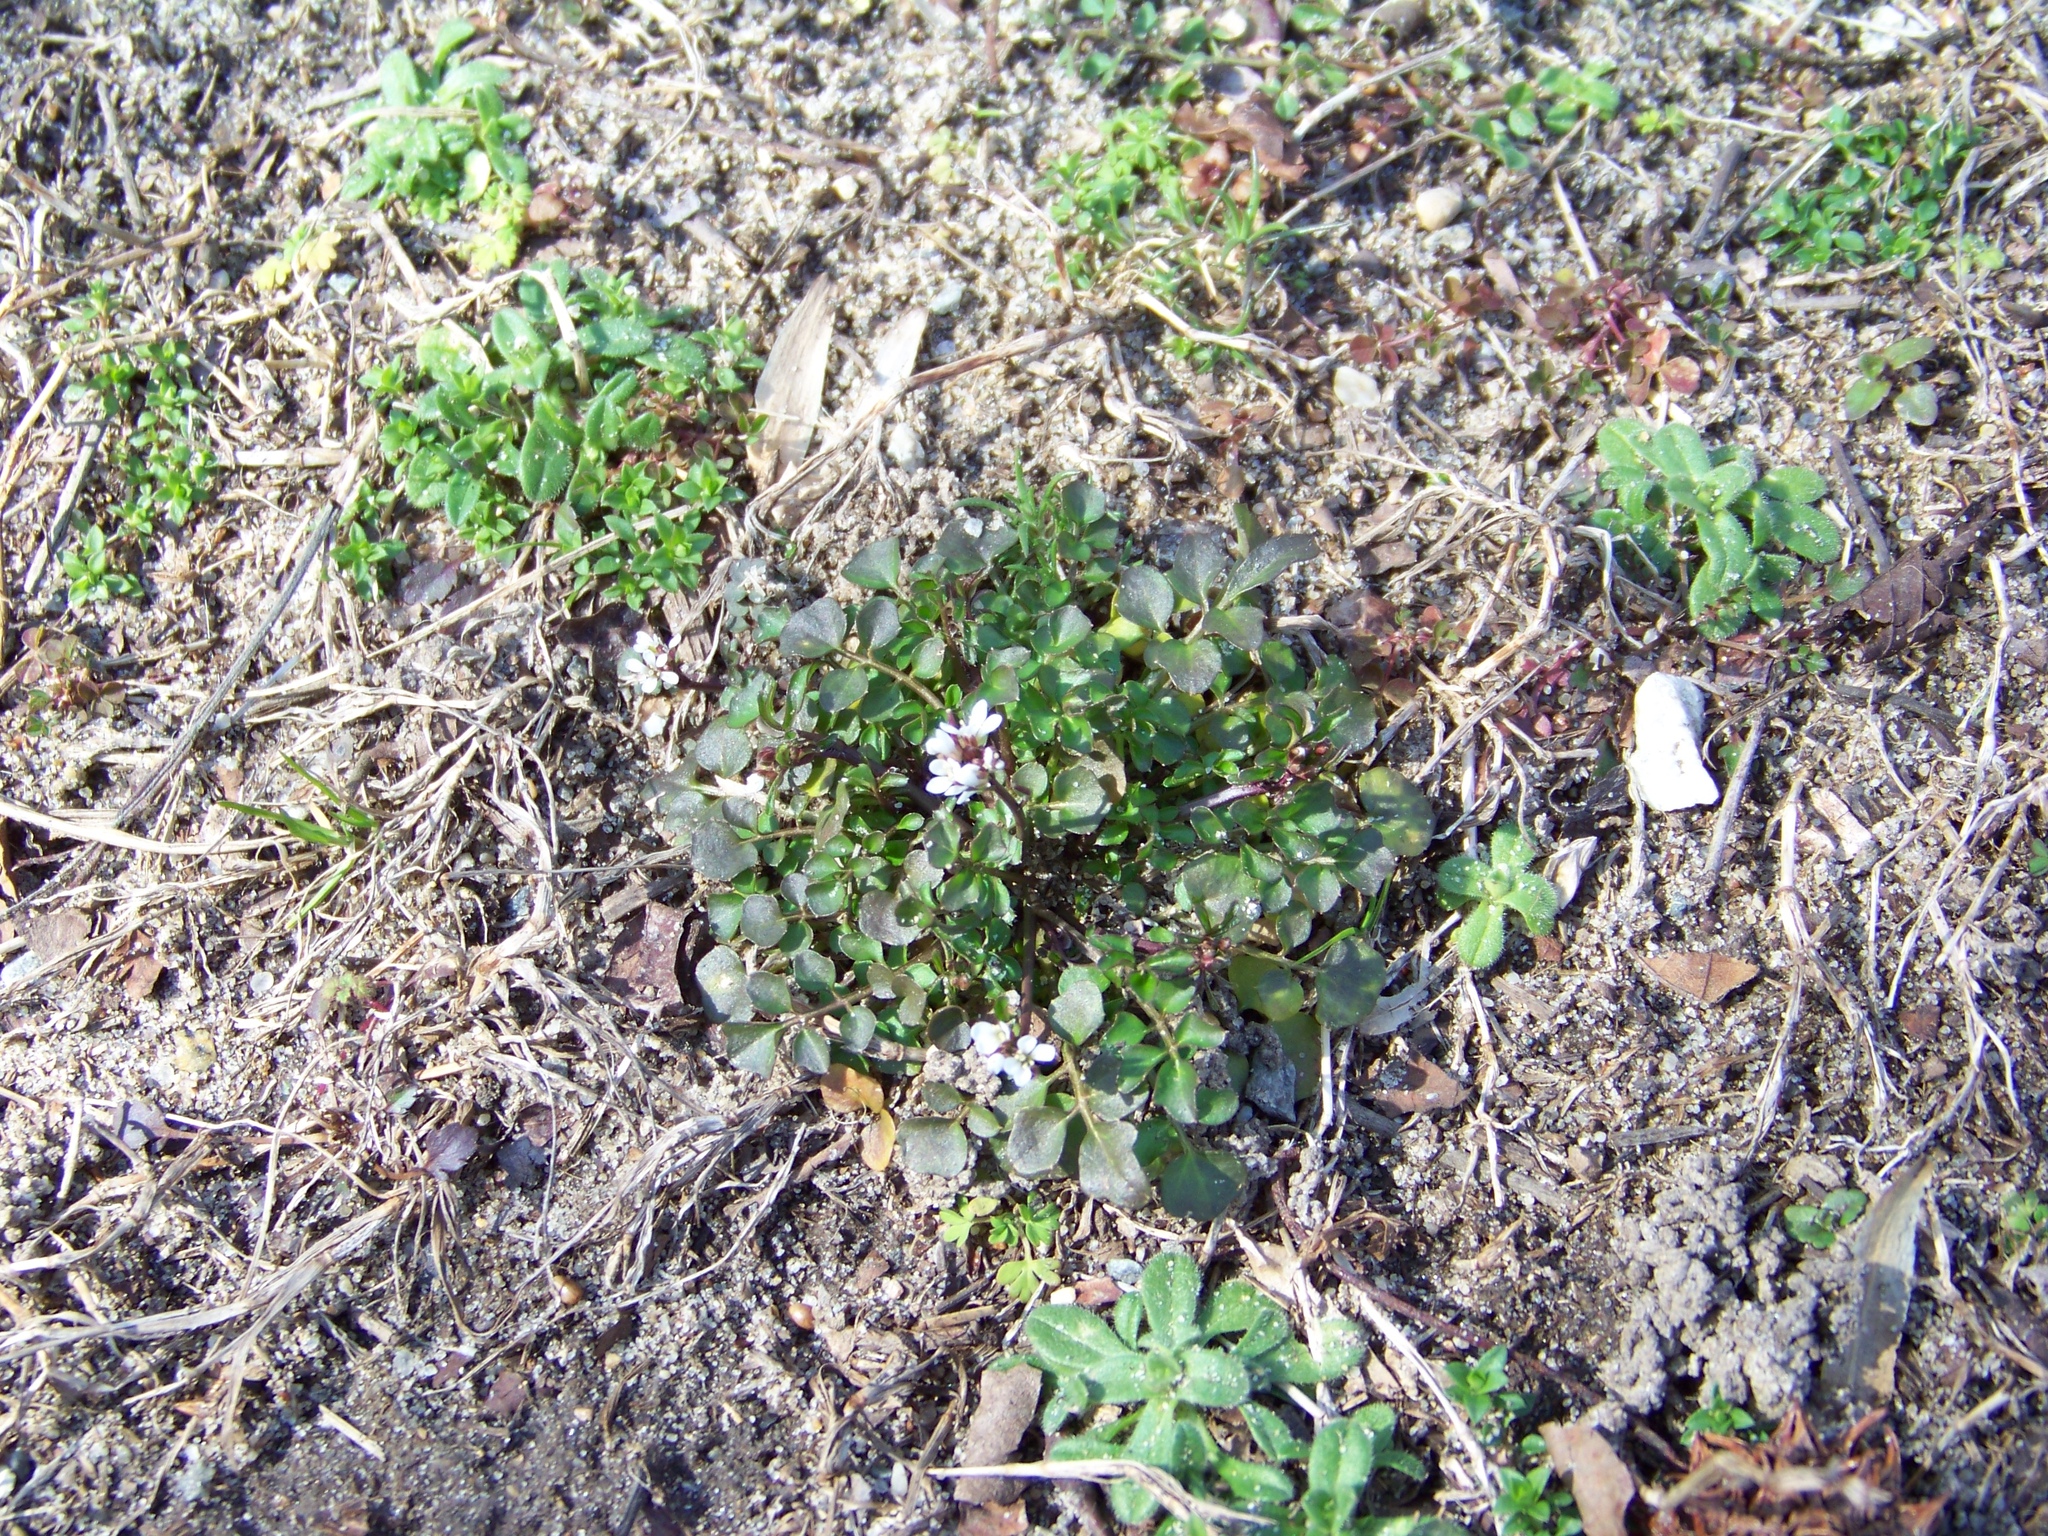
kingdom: Plantae
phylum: Tracheophyta
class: Magnoliopsida
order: Brassicales
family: Brassicaceae
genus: Cardamine
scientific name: Cardamine hirsuta
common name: Hairy bittercress
